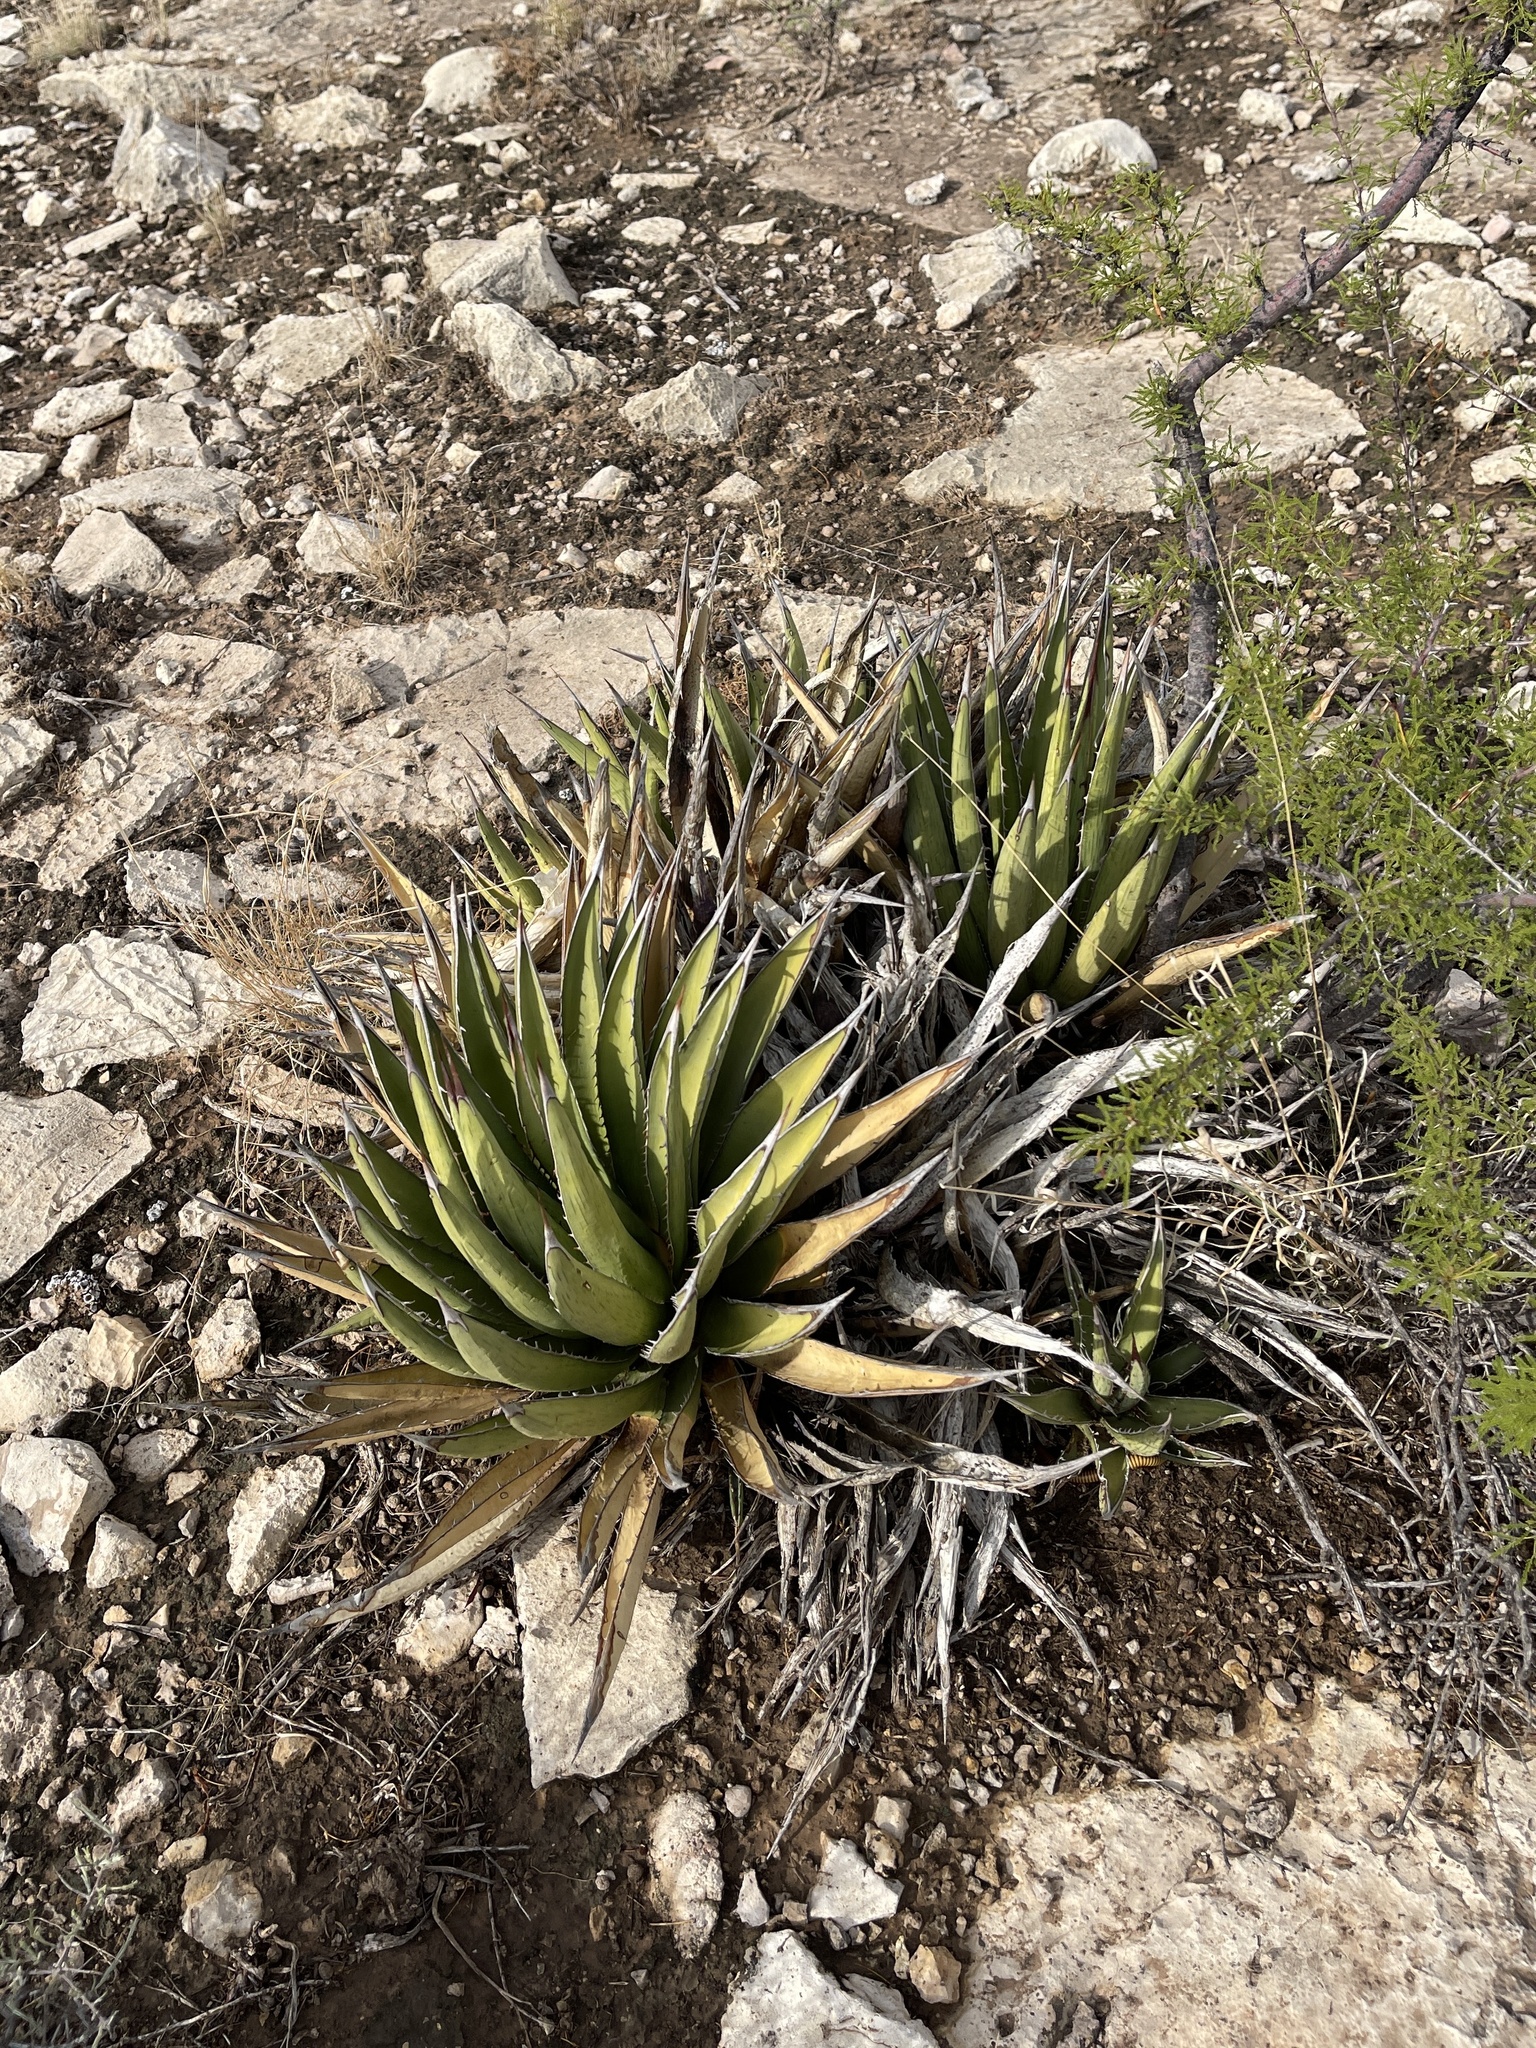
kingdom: Plantae
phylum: Tracheophyta
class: Liliopsida
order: Asparagales
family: Asparagaceae
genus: Agave
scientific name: Agave lechuguilla
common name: Lecheguilla agave
